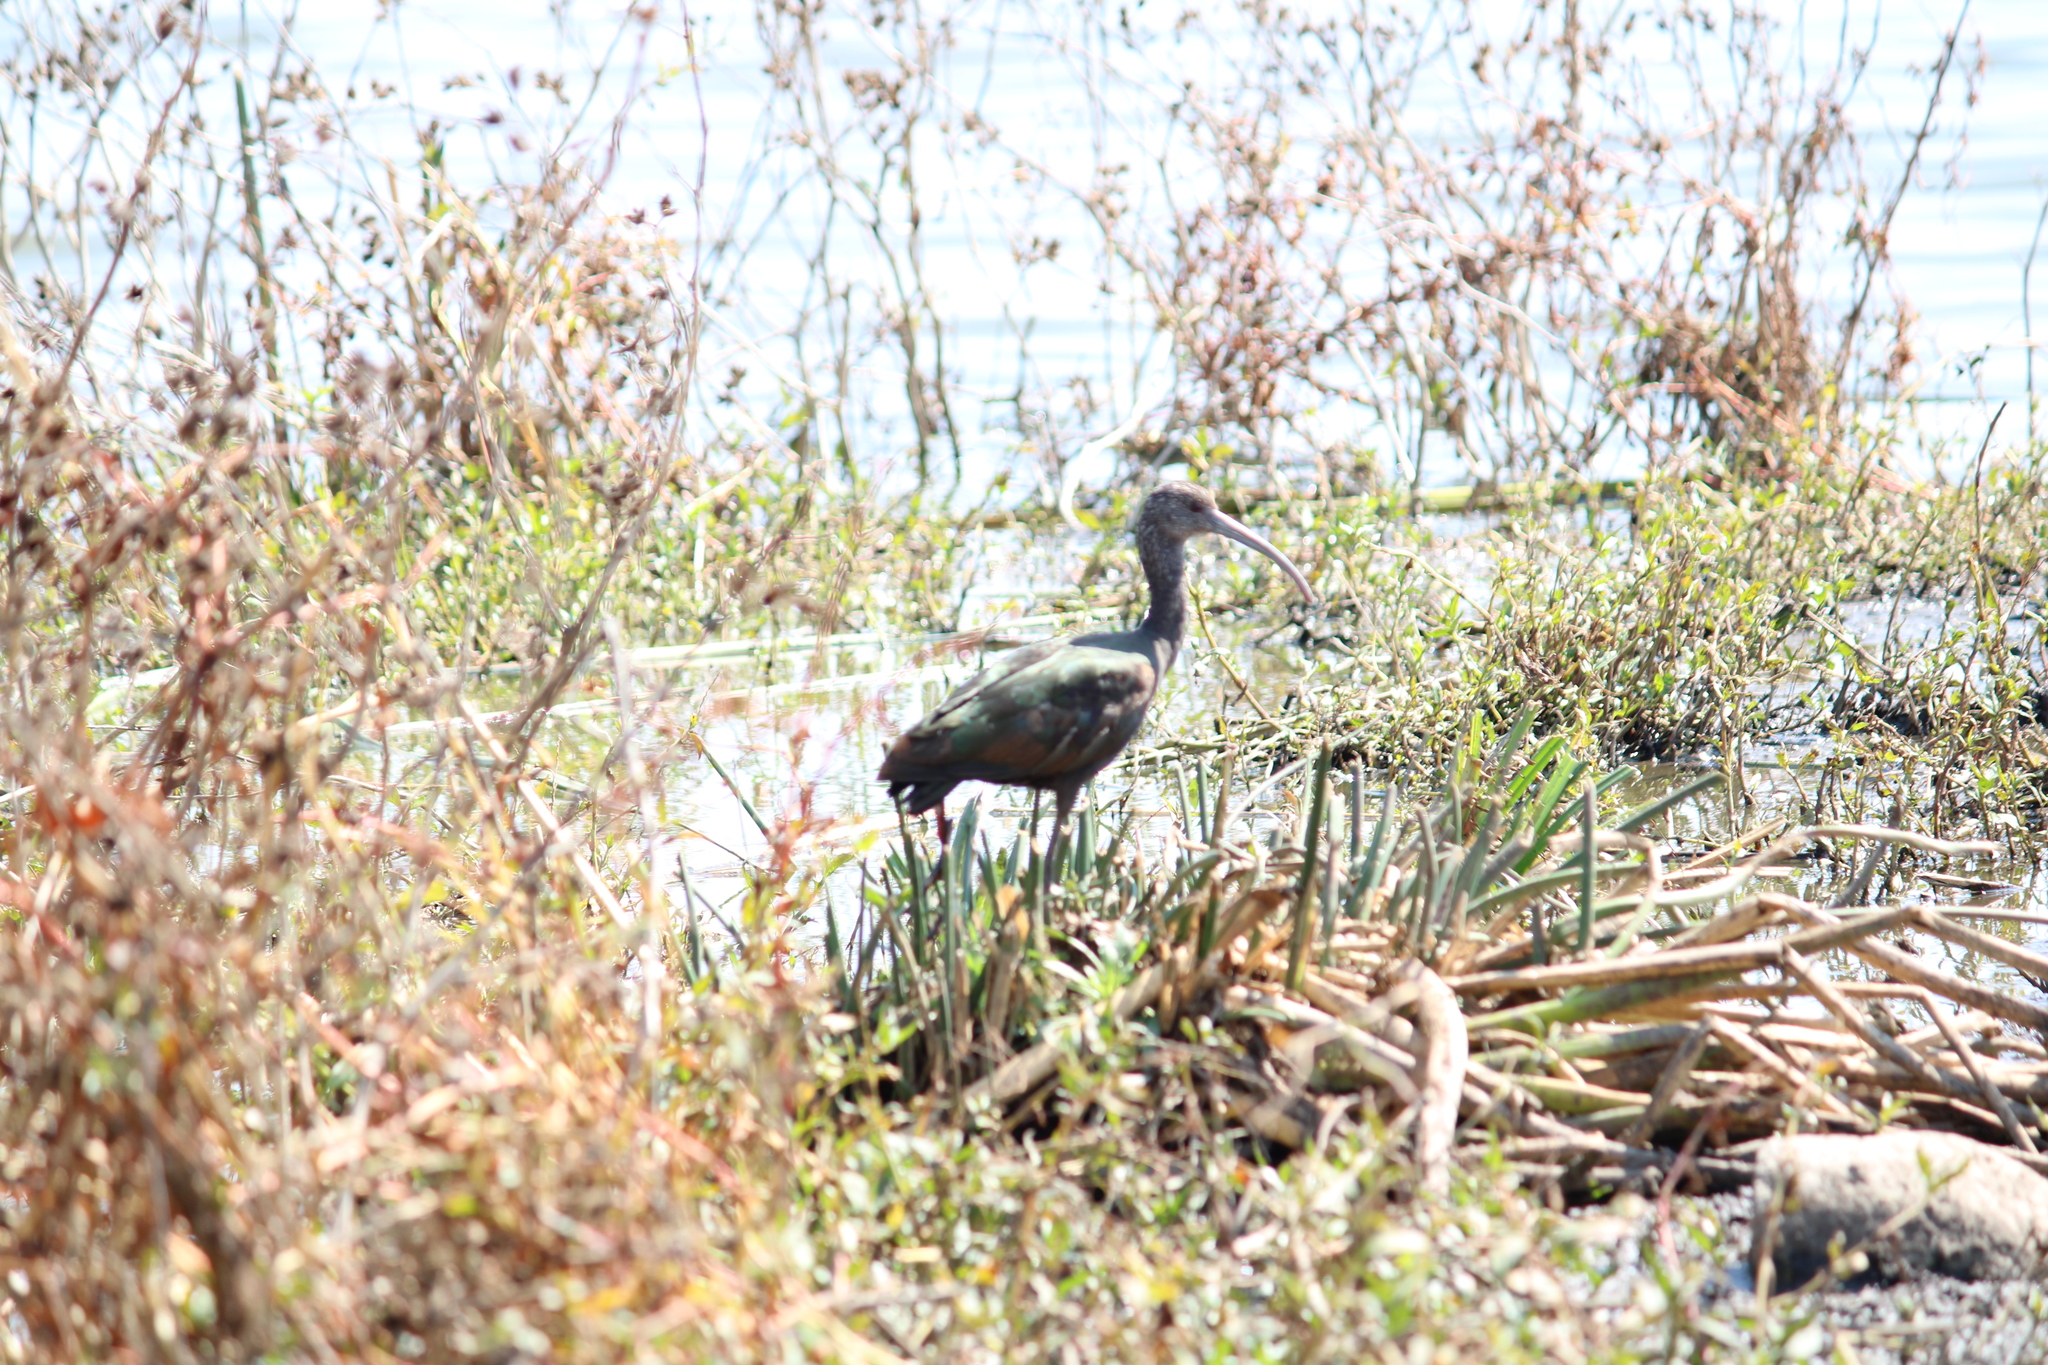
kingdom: Animalia
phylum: Chordata
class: Aves
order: Pelecaniformes
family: Threskiornithidae
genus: Plegadis
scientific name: Plegadis chihi
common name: White-faced ibis
